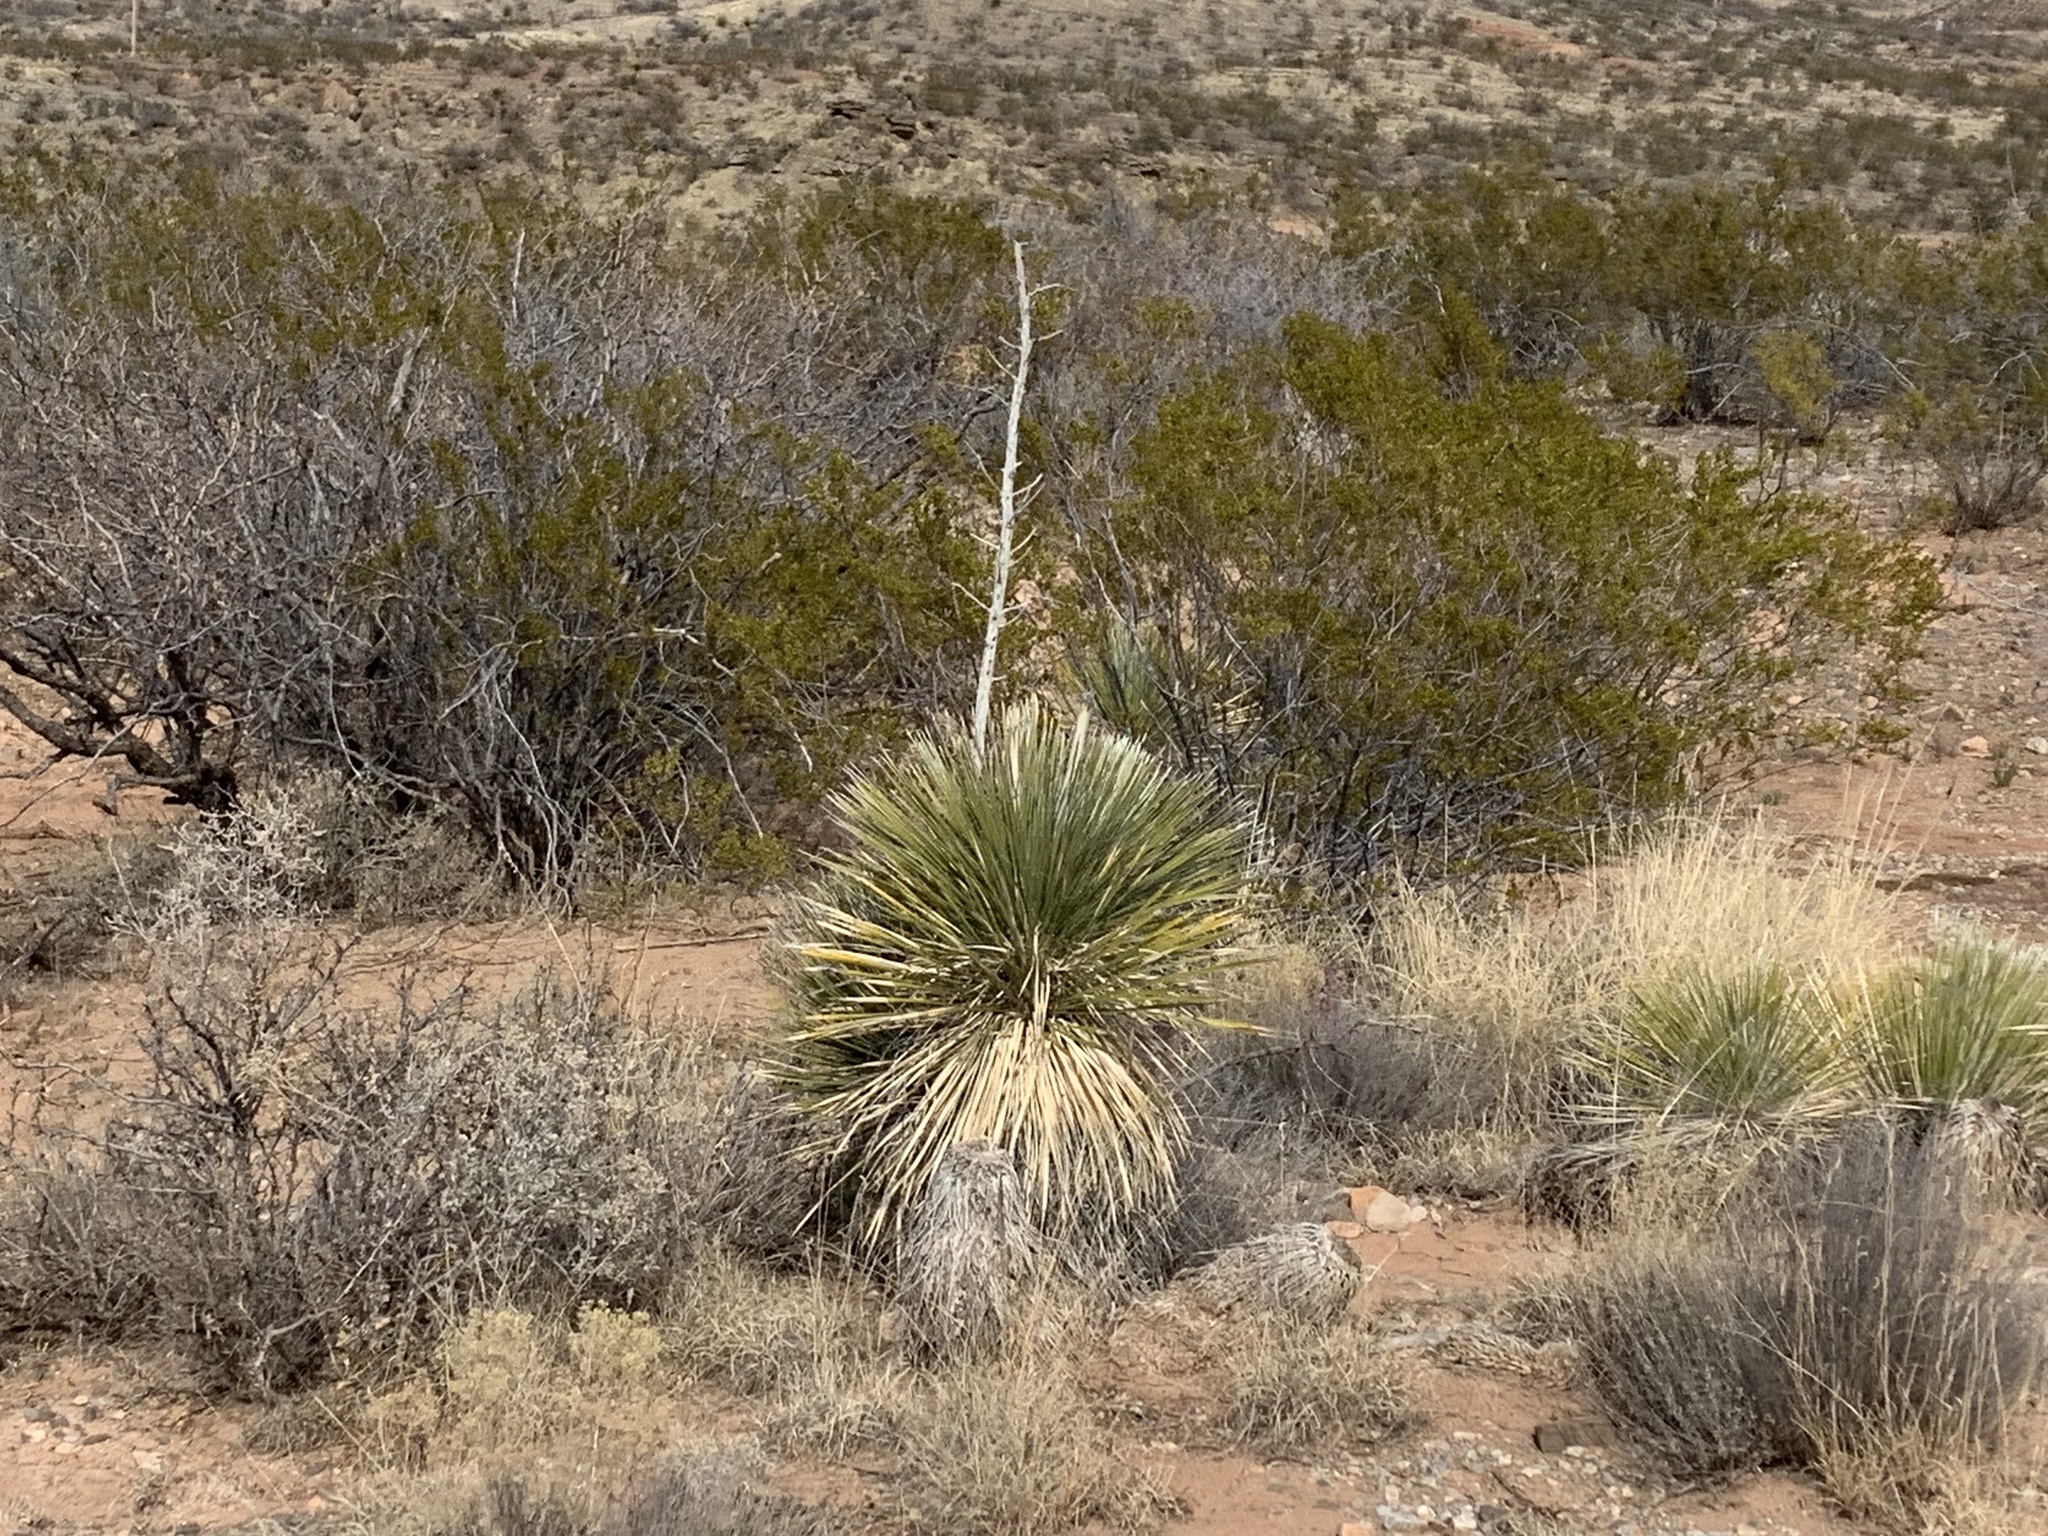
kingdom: Plantae
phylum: Tracheophyta
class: Liliopsida
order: Asparagales
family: Asparagaceae
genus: Yucca
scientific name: Yucca elata
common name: Palmella
